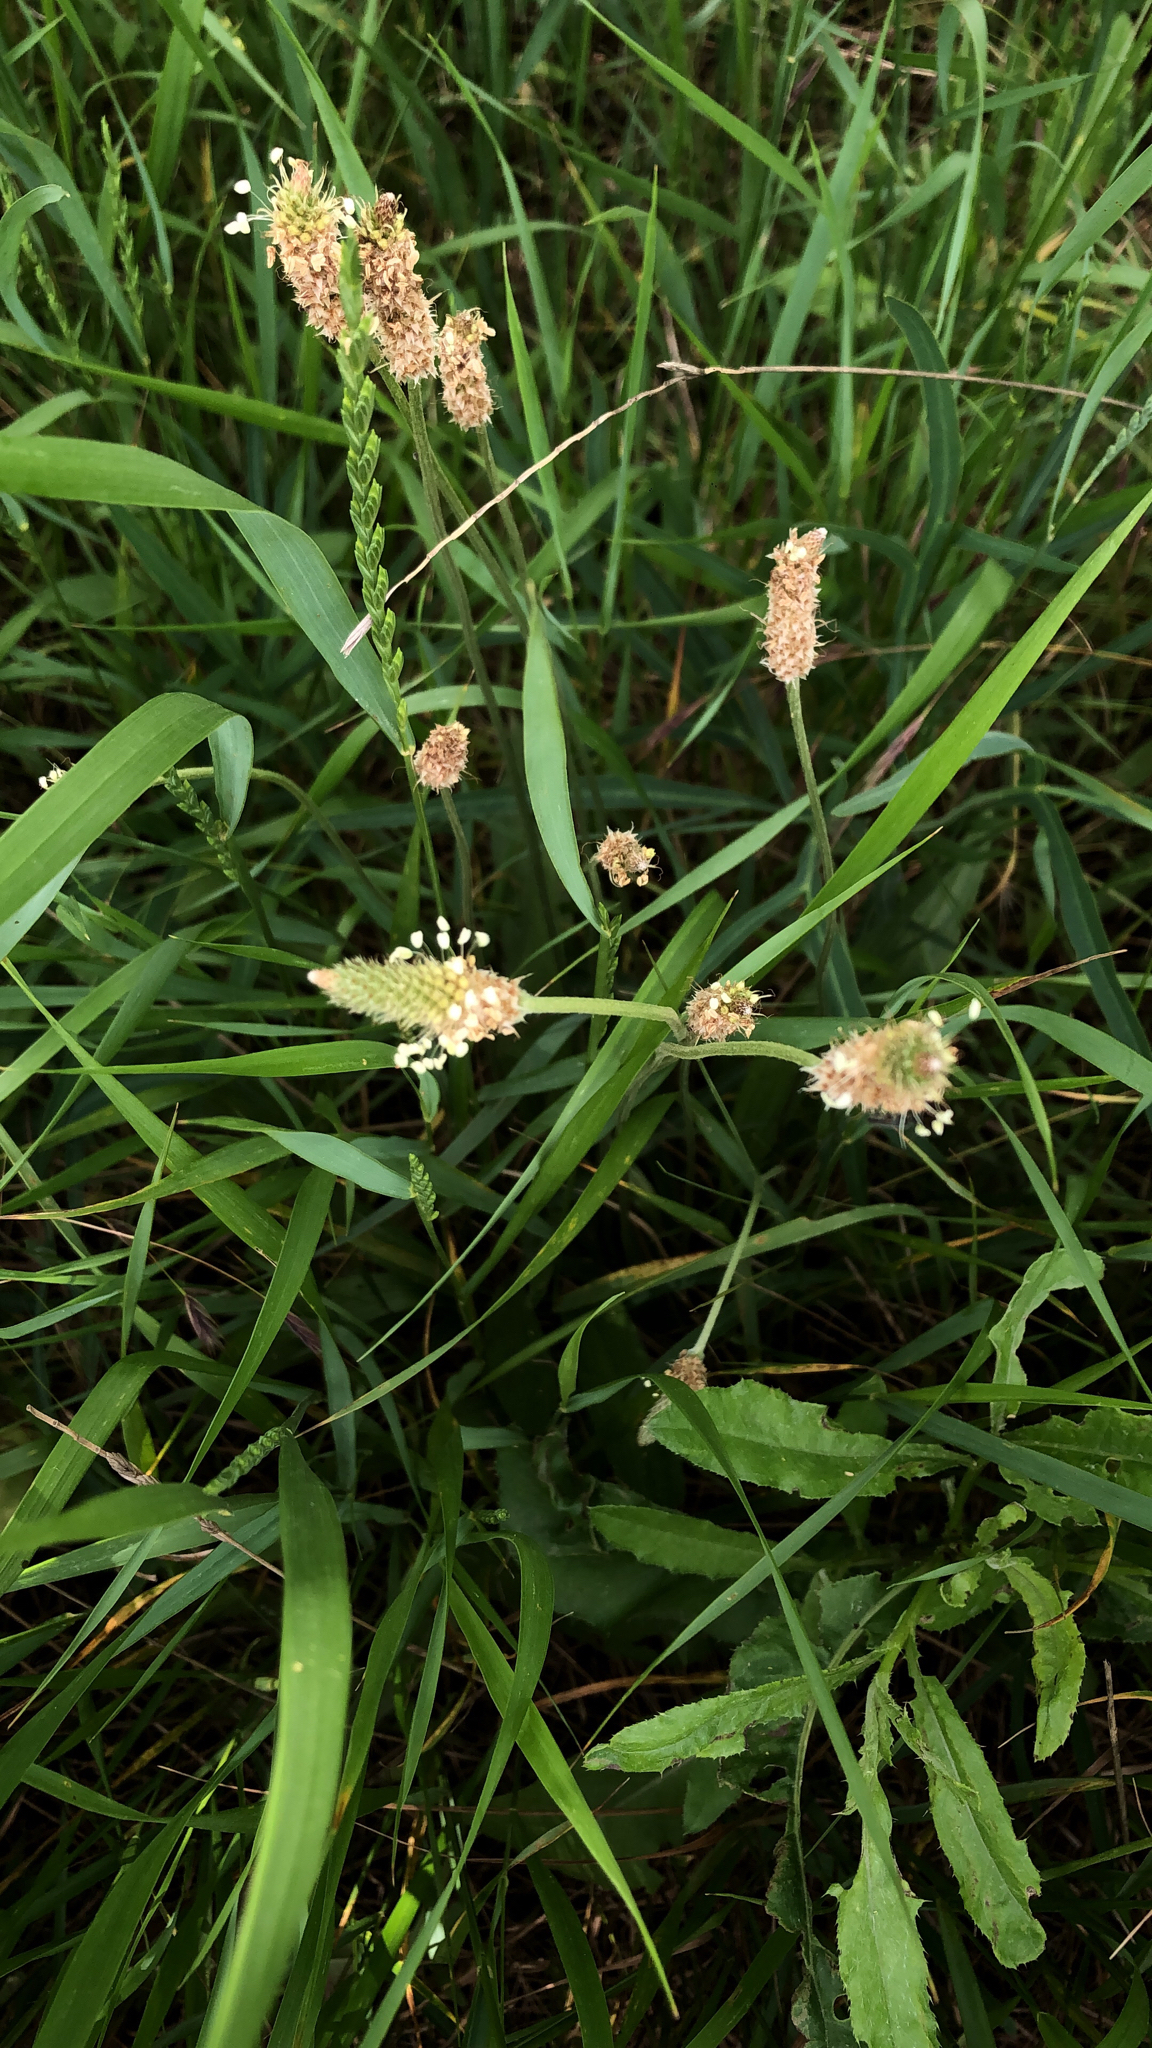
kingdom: Plantae
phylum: Tracheophyta
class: Magnoliopsida
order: Lamiales
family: Plantaginaceae
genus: Plantago
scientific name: Plantago lanceolata
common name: Ribwort plantain
